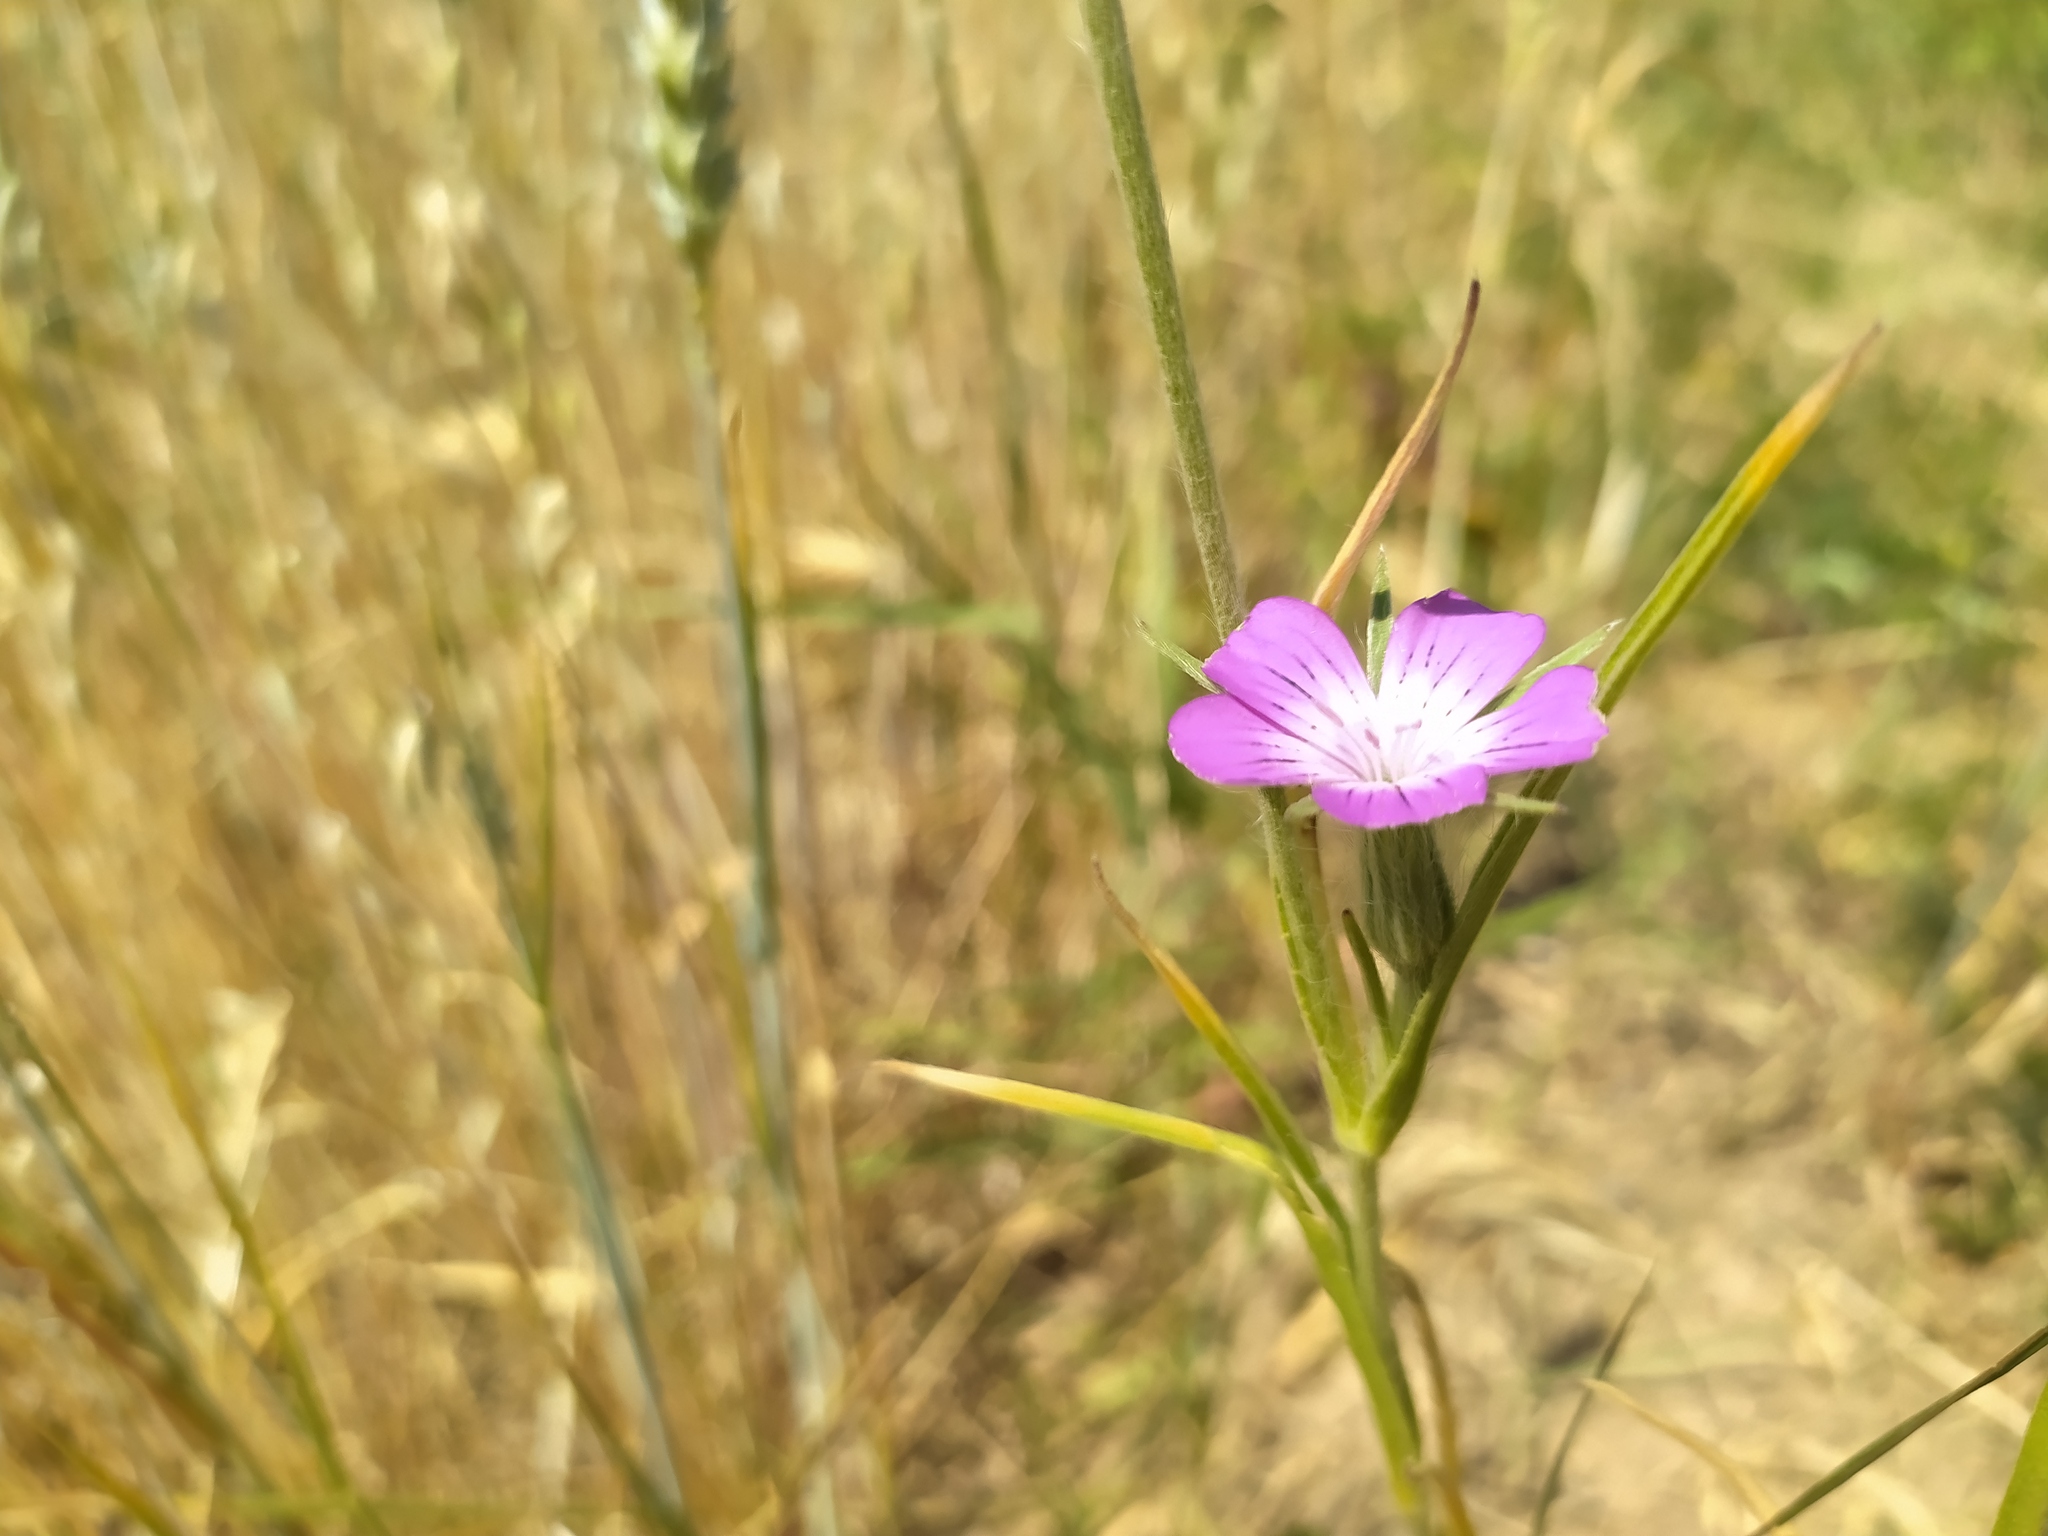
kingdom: Plantae
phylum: Tracheophyta
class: Magnoliopsida
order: Caryophyllales
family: Caryophyllaceae
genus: Agrostemma
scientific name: Agrostemma githago
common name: Common corncockle
